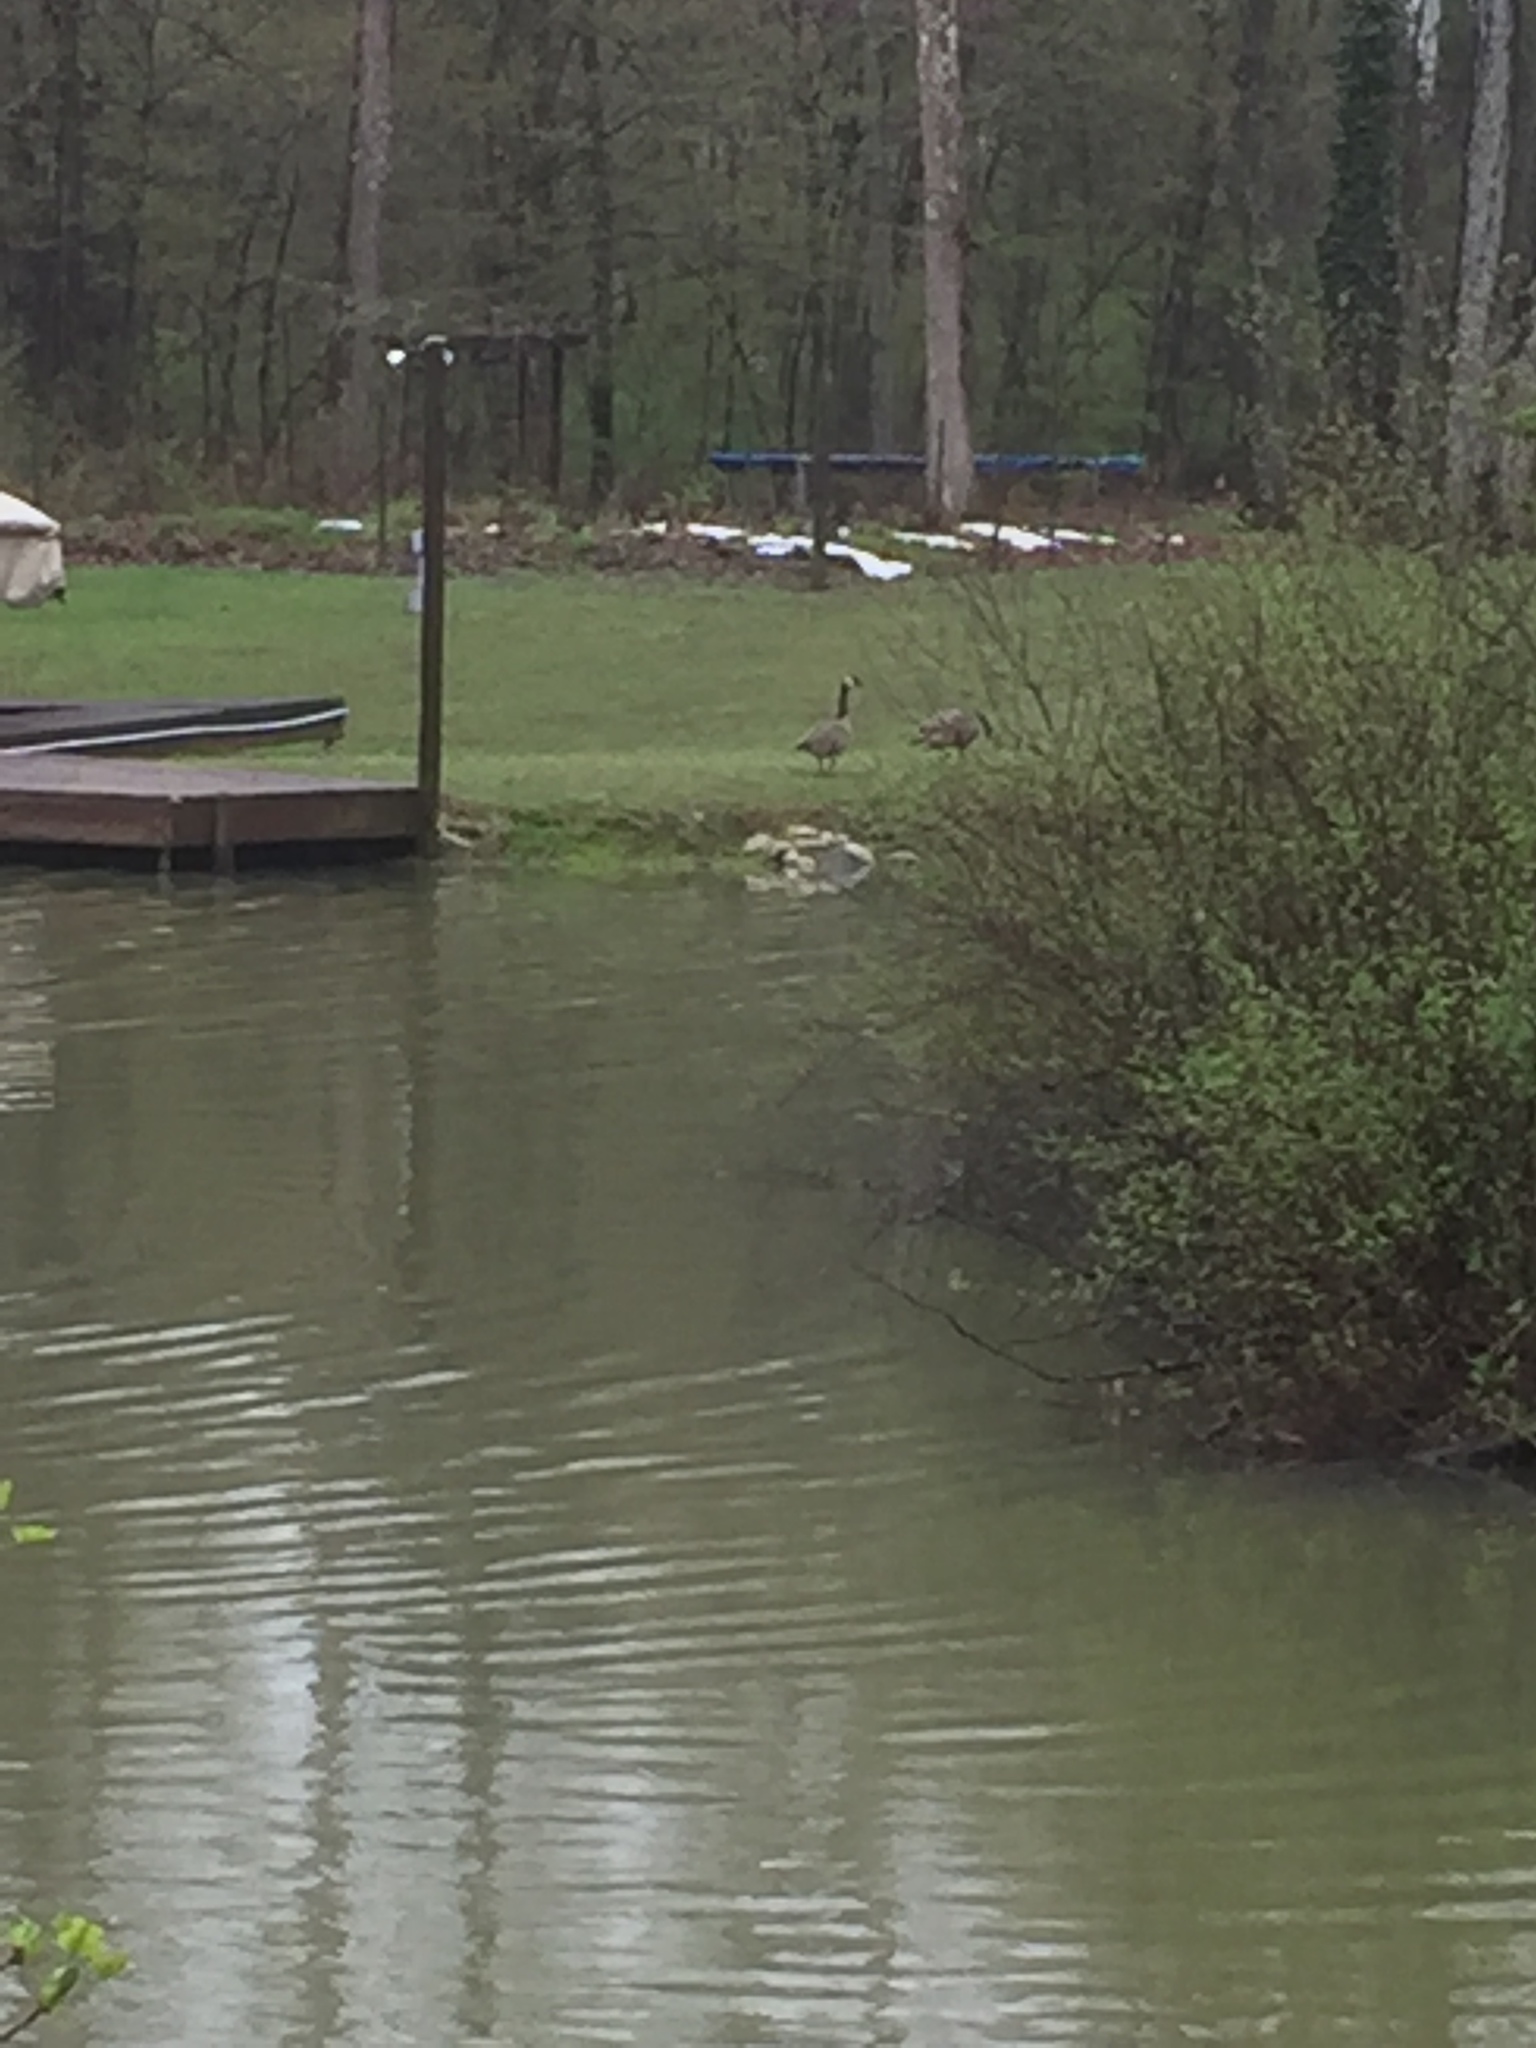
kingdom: Animalia
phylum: Chordata
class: Aves
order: Anseriformes
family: Anatidae
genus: Branta
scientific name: Branta canadensis
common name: Canada goose
